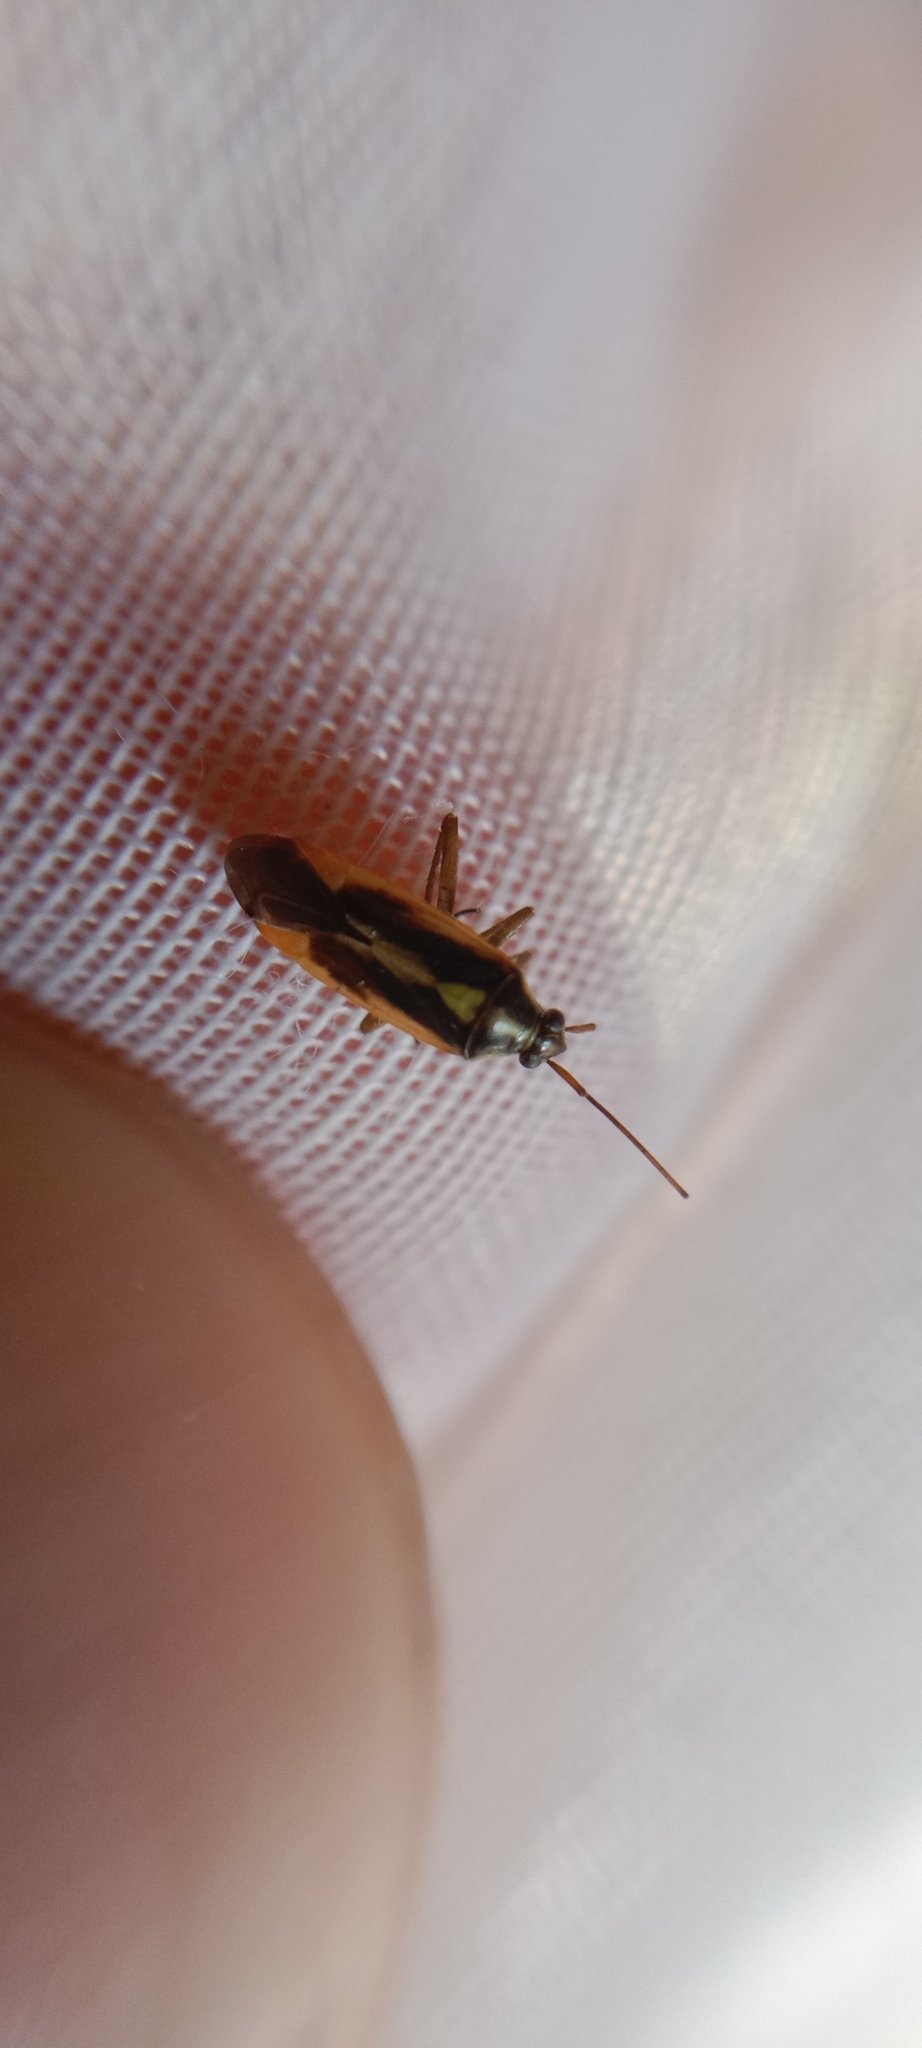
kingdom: Animalia
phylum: Arthropoda
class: Insecta
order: Hemiptera
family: Miridae
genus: Stenotus
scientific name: Stenotus binotatus
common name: Plant bug
